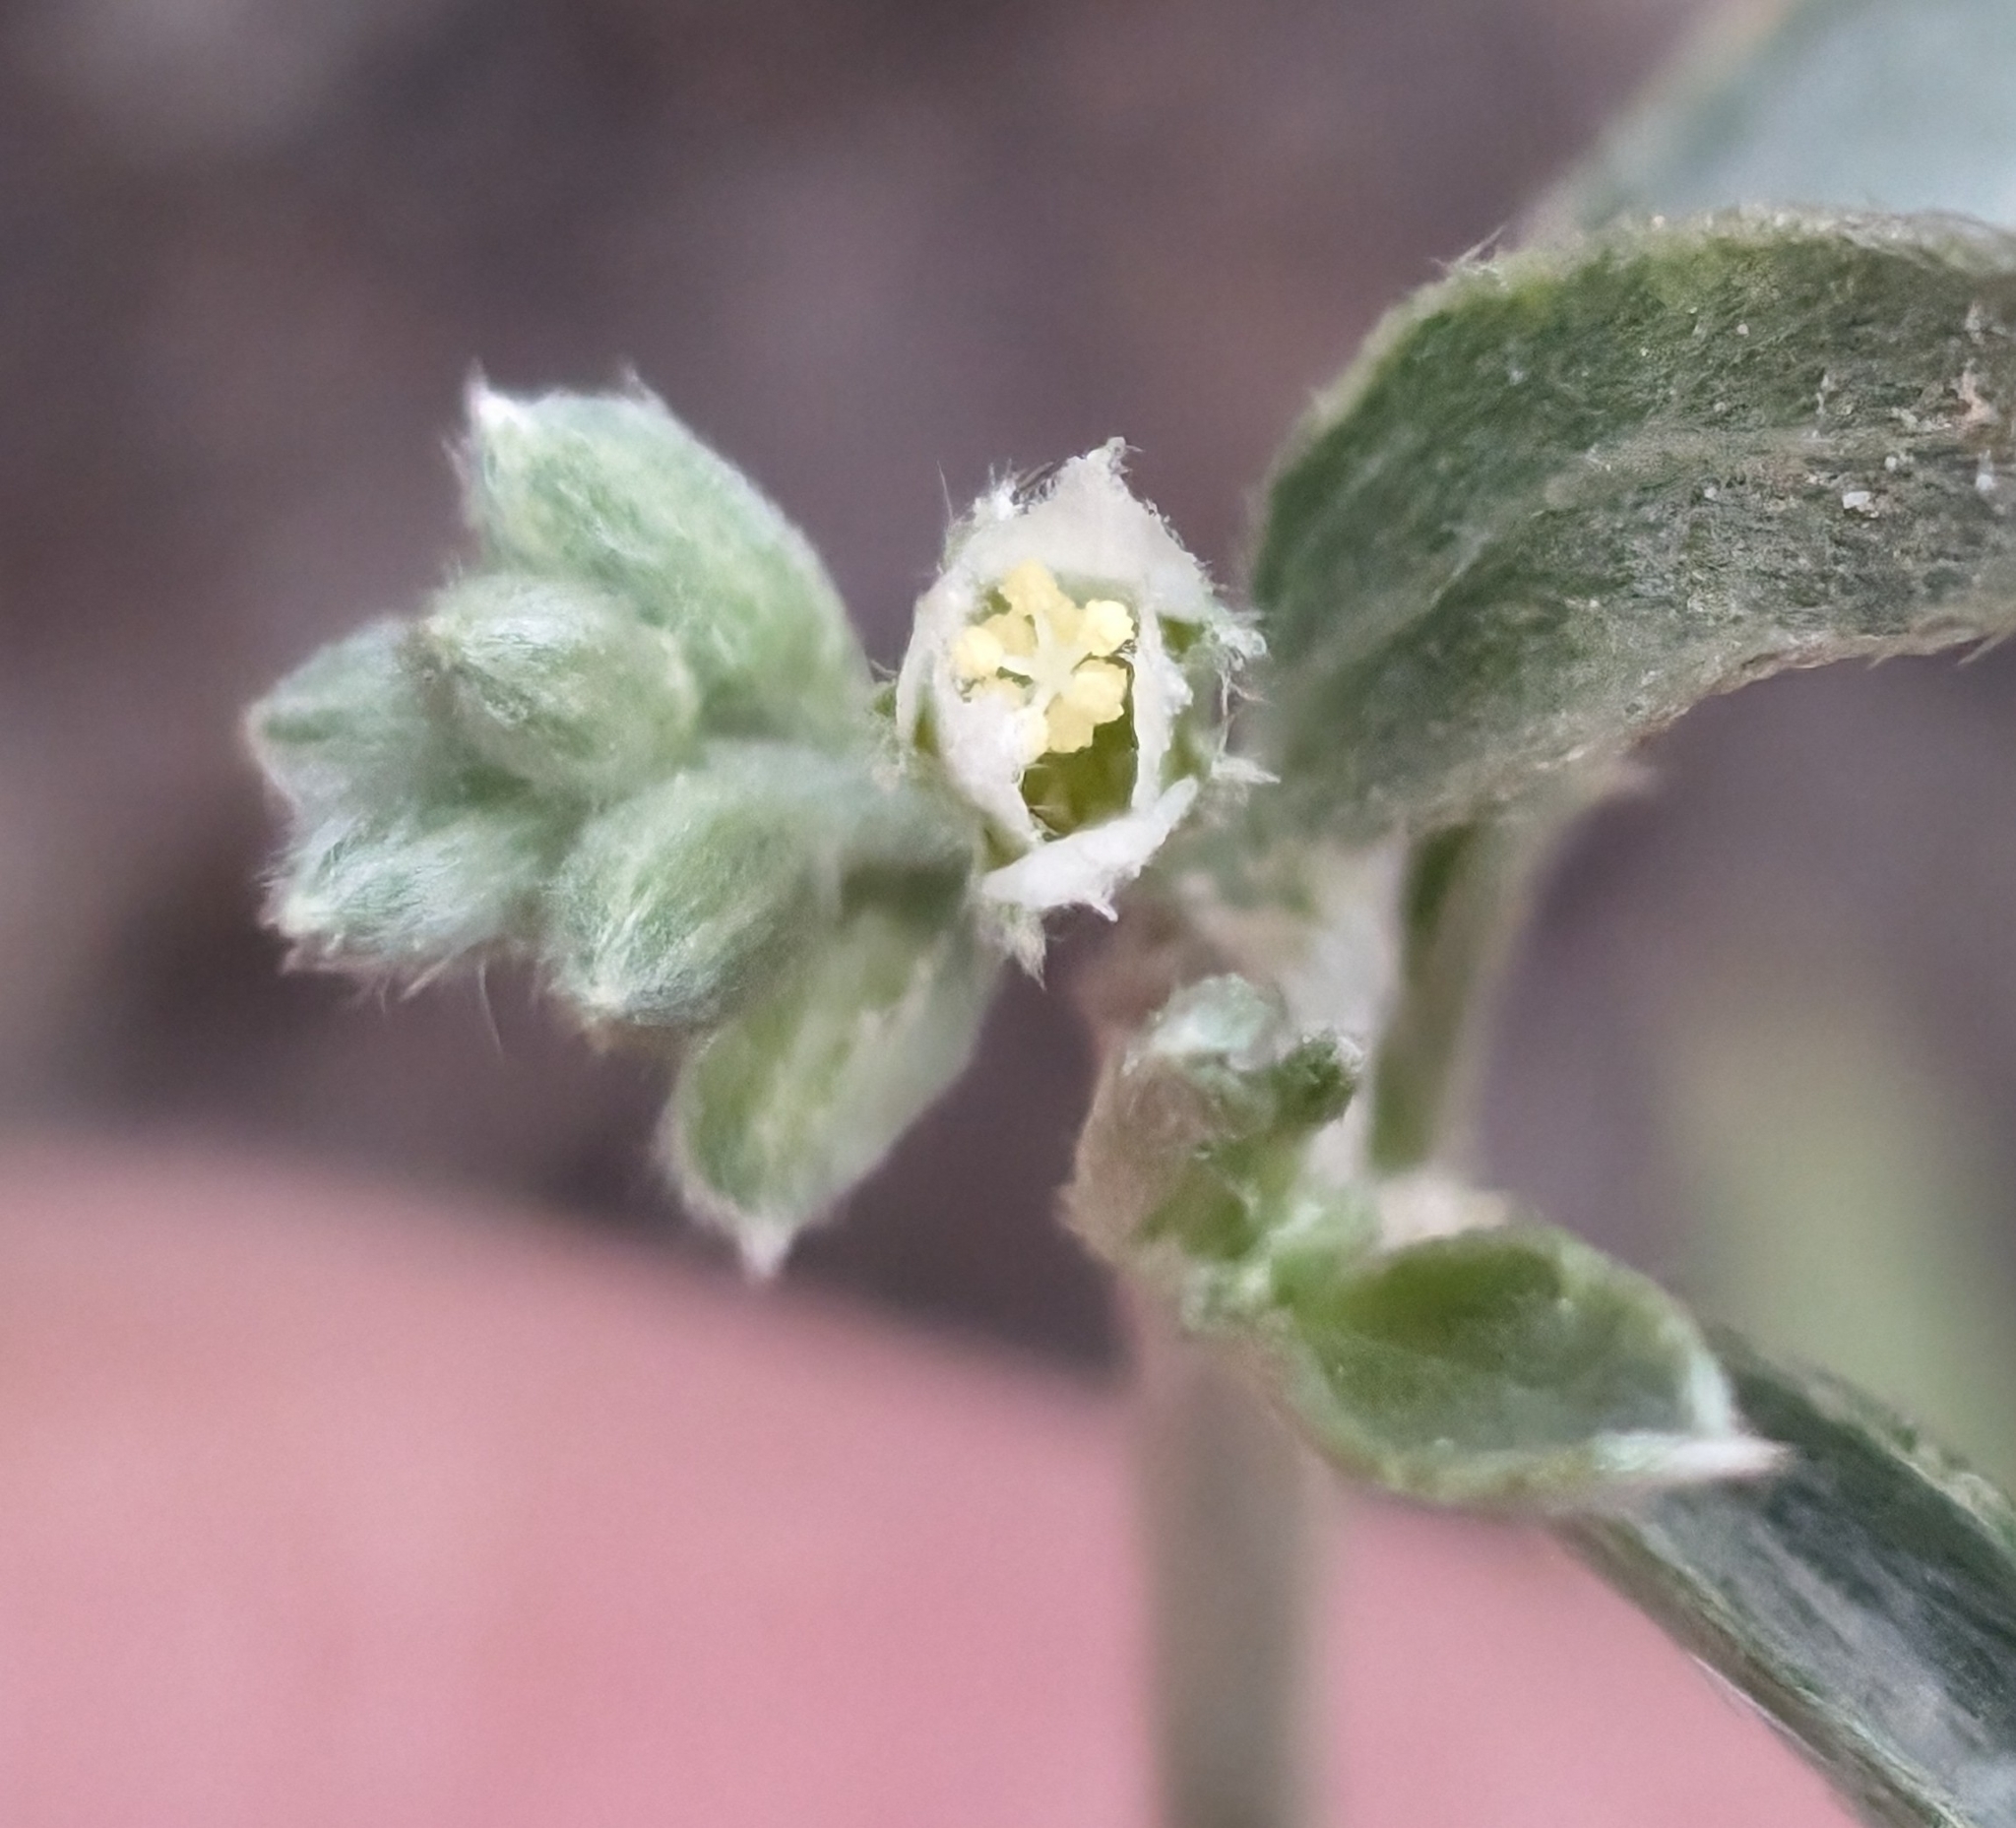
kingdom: Plantae
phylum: Tracheophyta
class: Magnoliopsida
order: Malpighiales
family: Euphorbiaceae
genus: Ditaxis
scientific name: Ditaxis lanceolata
